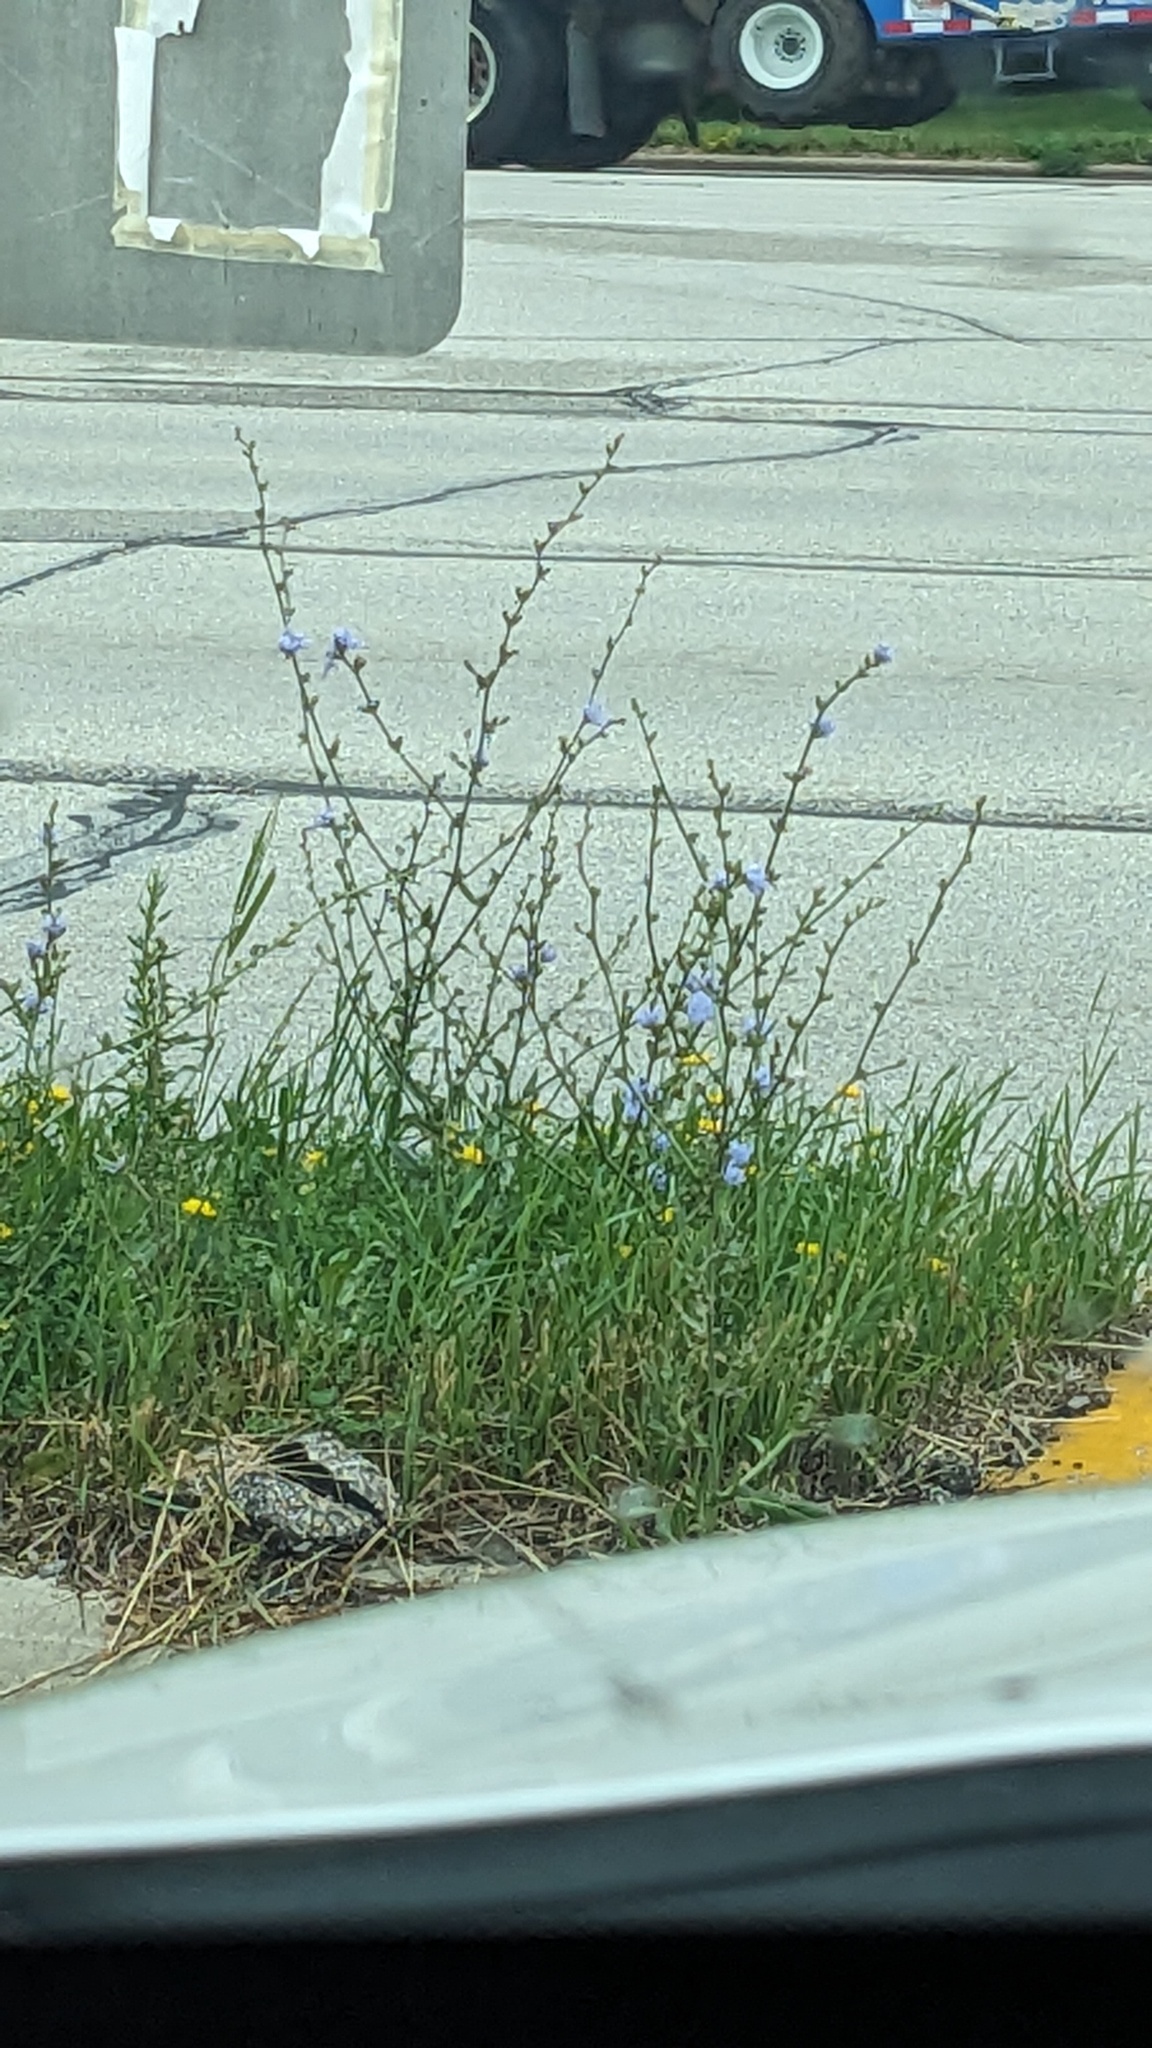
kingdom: Plantae
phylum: Tracheophyta
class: Magnoliopsida
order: Asterales
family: Asteraceae
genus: Cichorium
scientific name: Cichorium intybus
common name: Chicory
